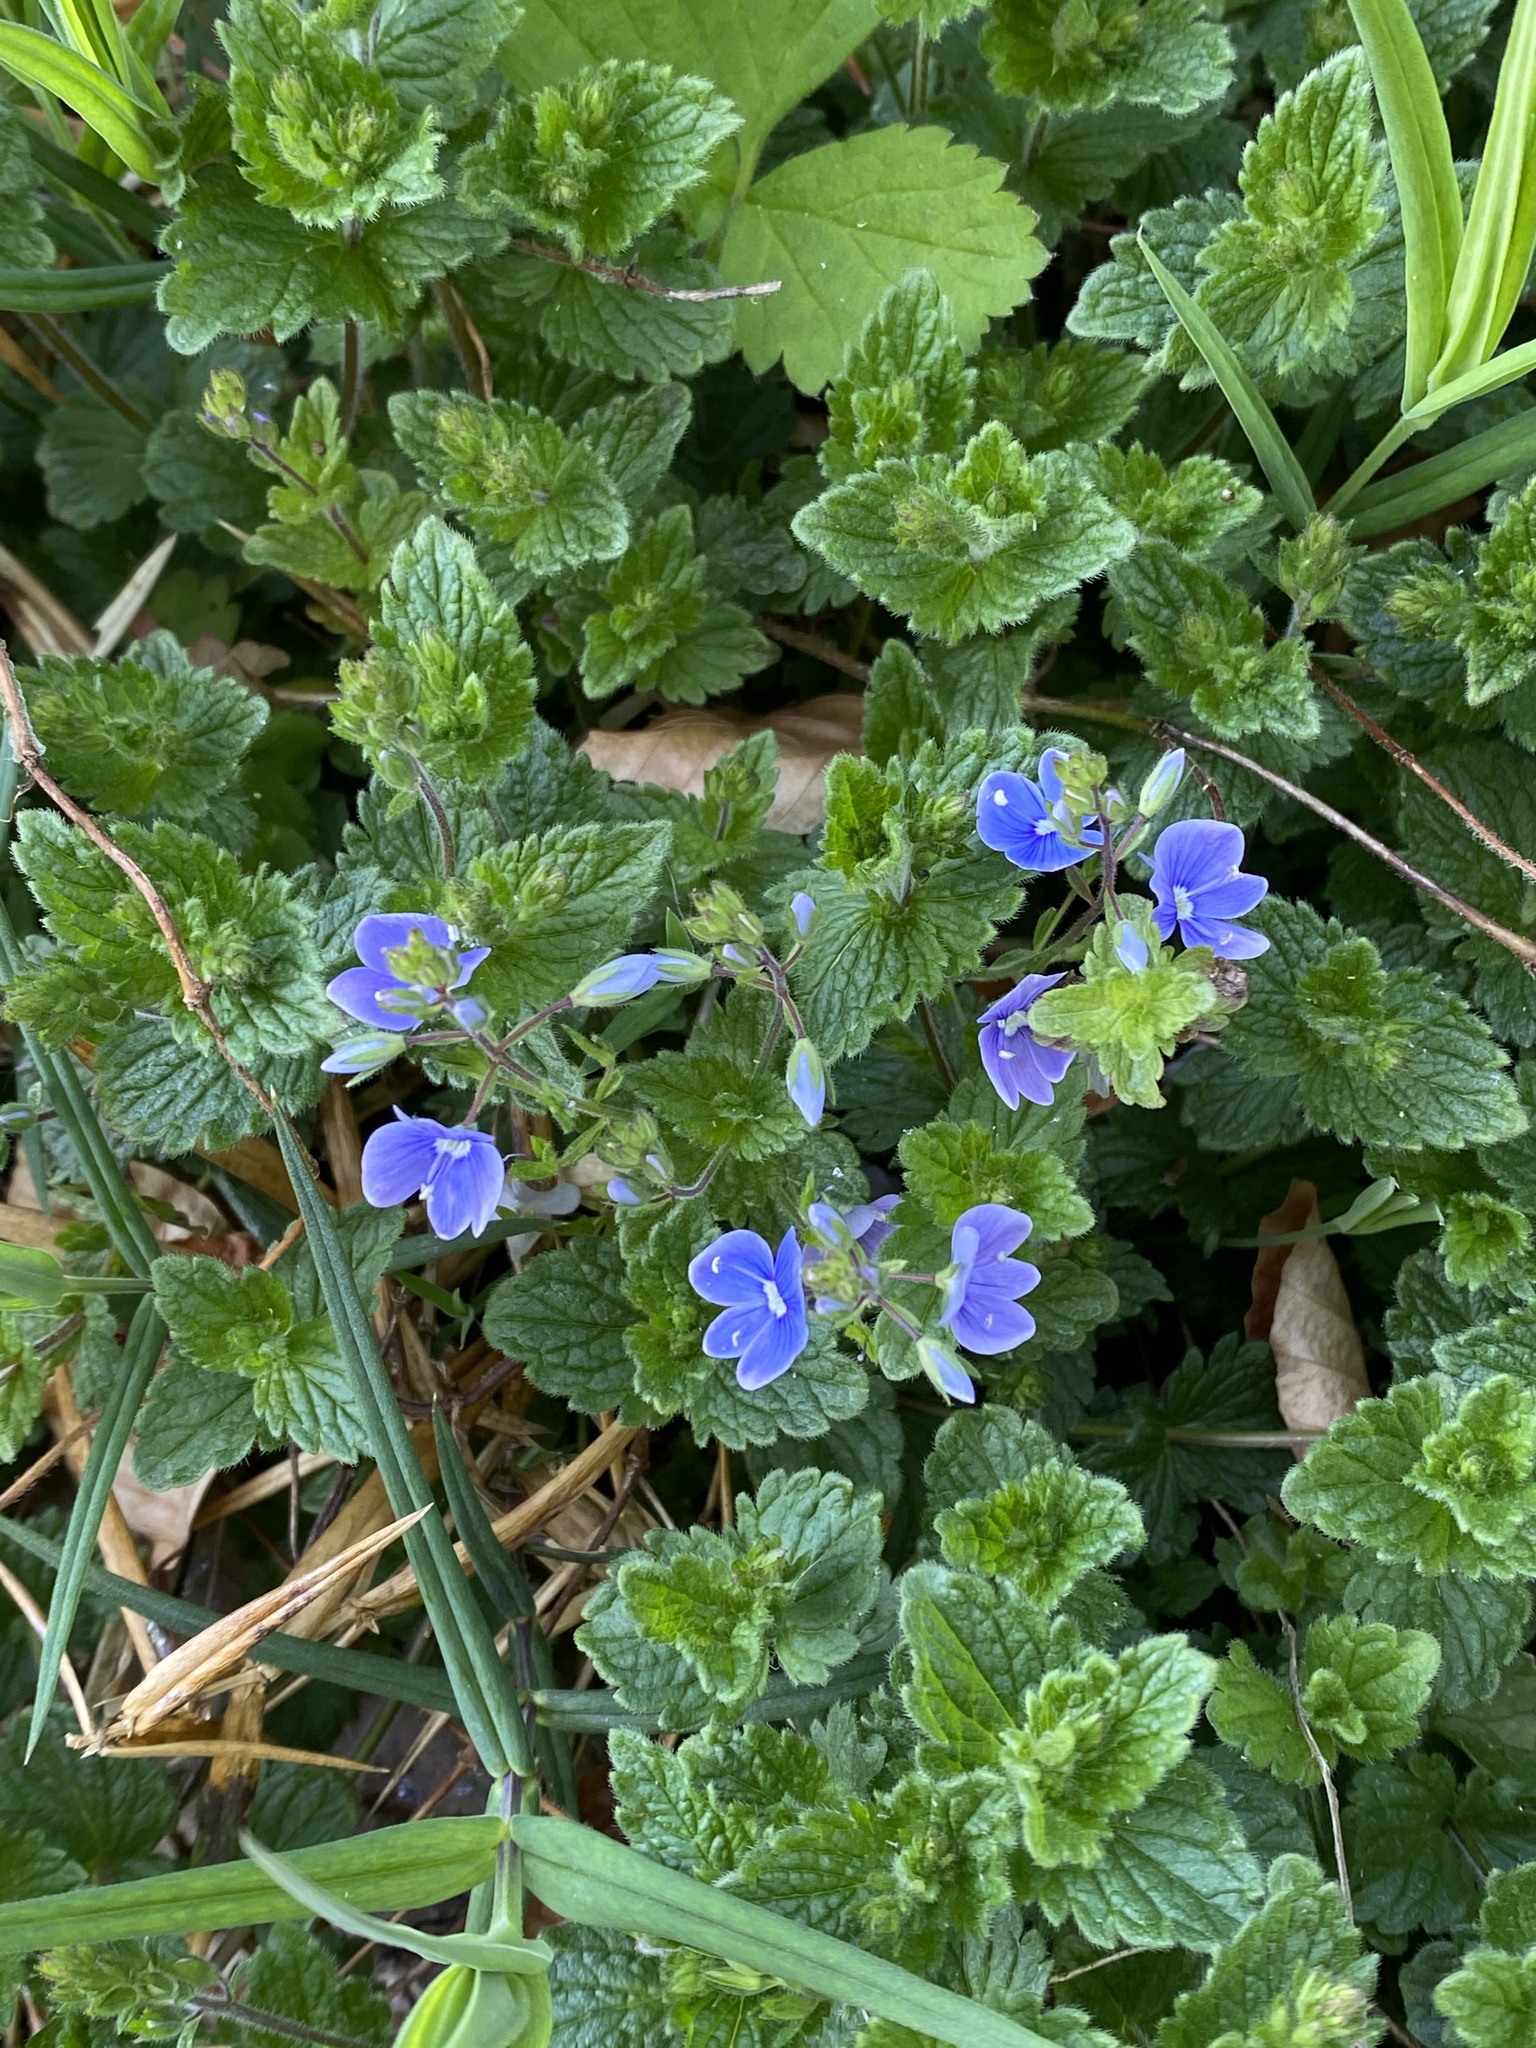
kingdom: Plantae
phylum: Tracheophyta
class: Magnoliopsida
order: Lamiales
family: Plantaginaceae
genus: Veronica
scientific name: Veronica chamaedrys
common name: Germander speedwell
